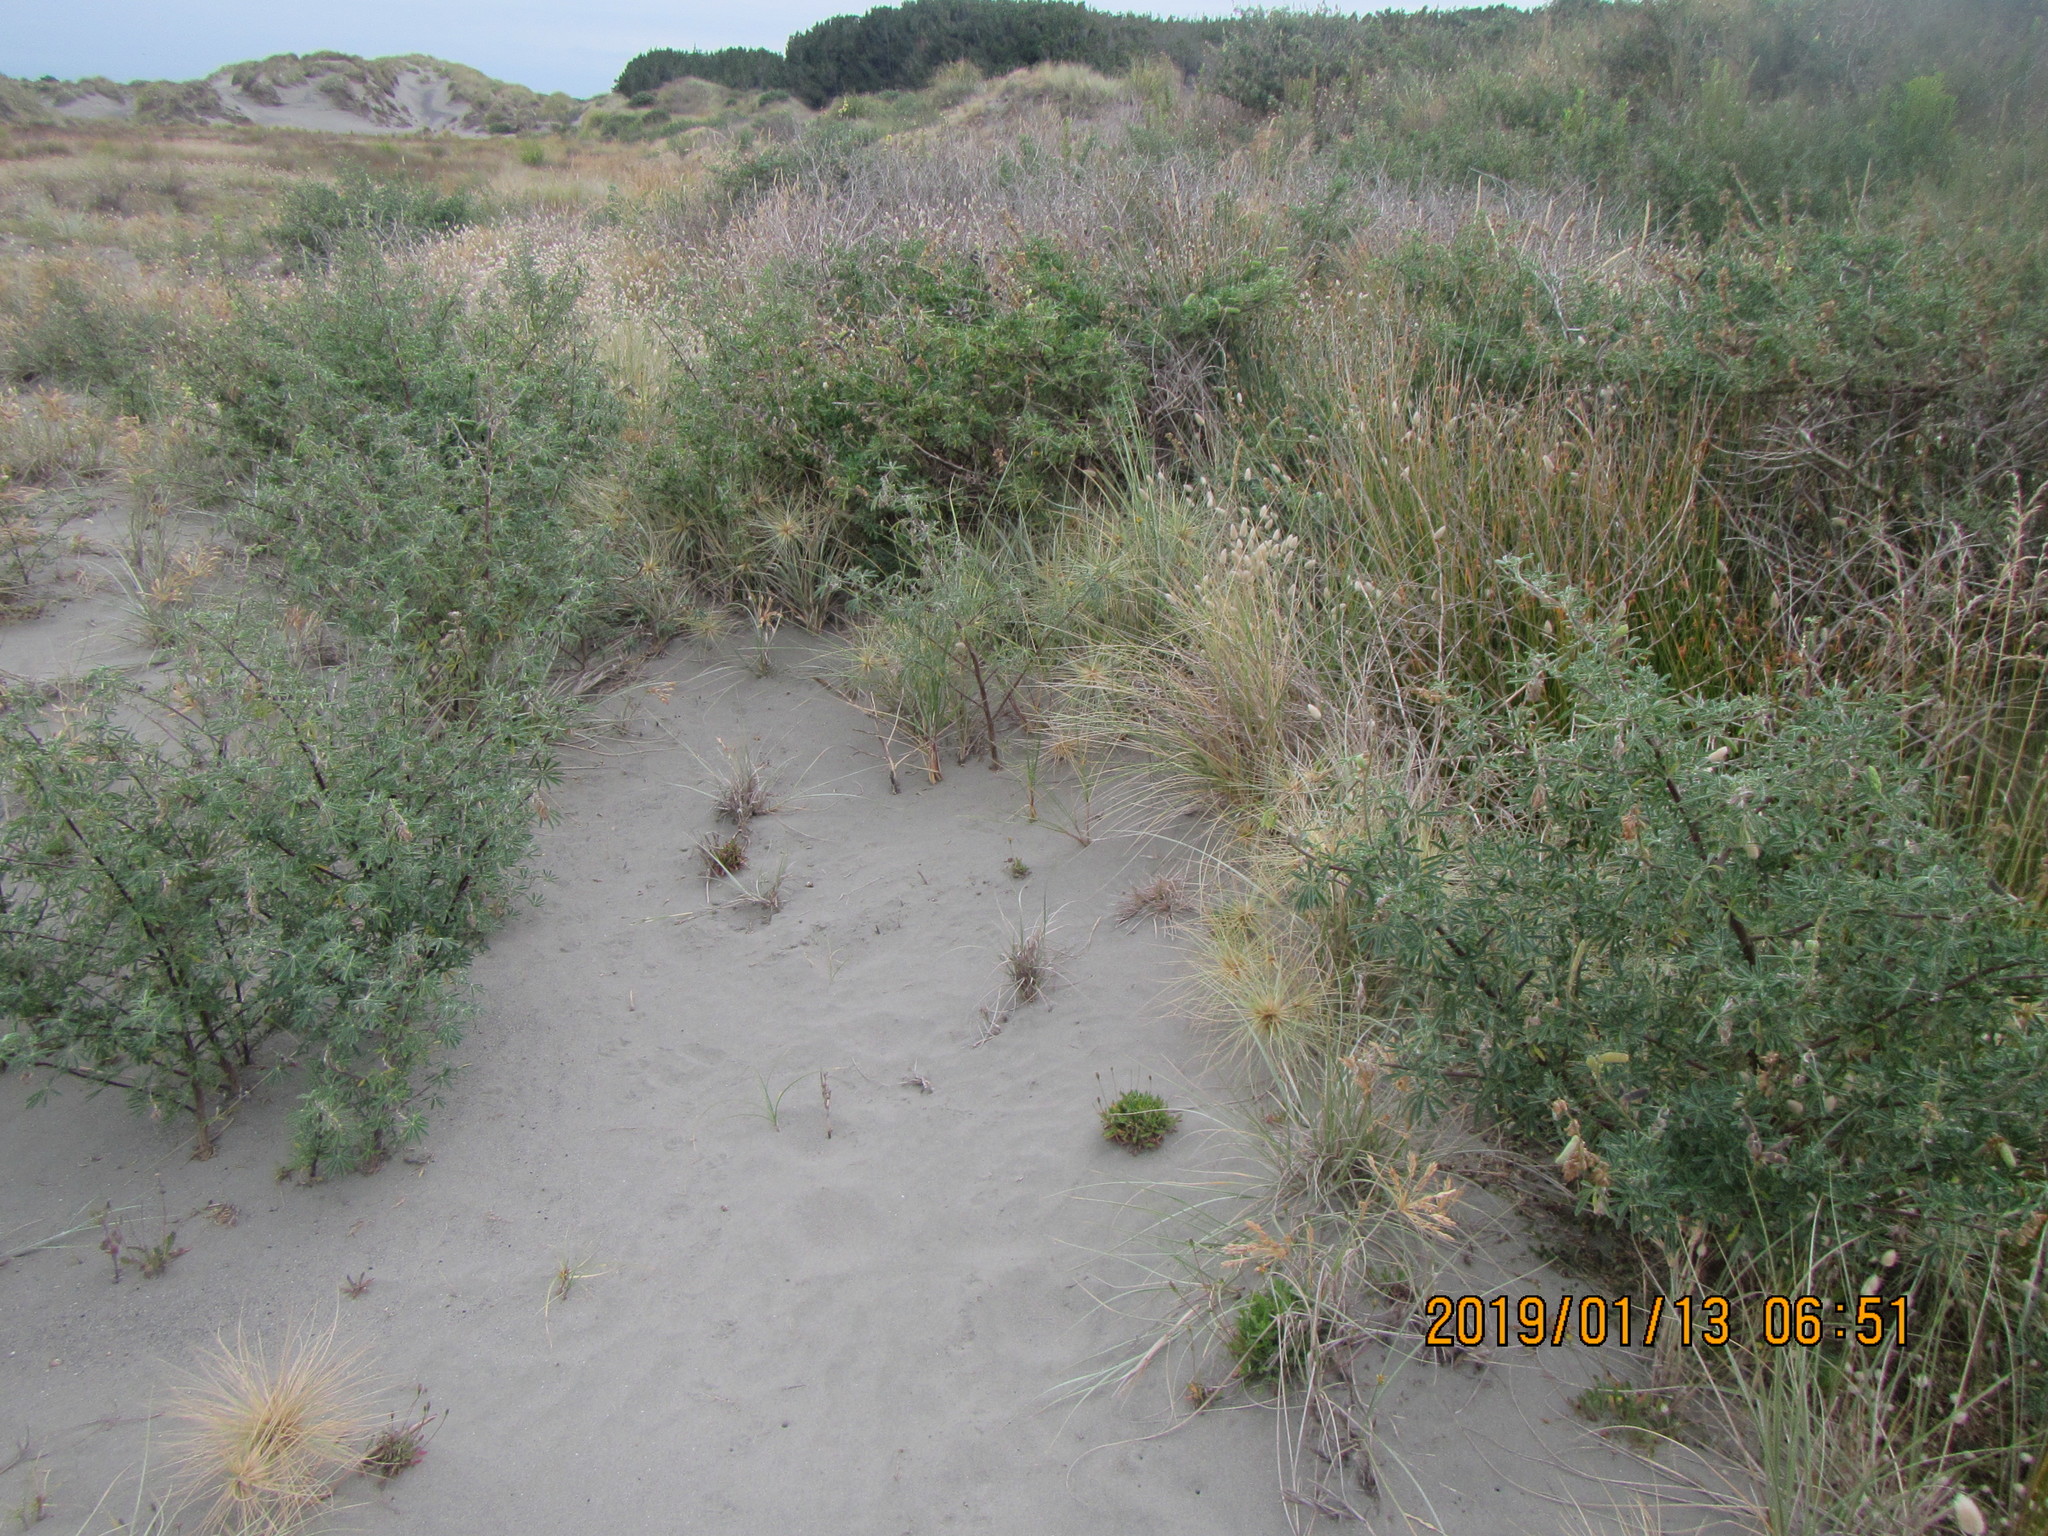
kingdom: Plantae
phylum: Tracheophyta
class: Magnoliopsida
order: Fabales
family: Fabaceae
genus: Lupinus
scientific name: Lupinus arboreus
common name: Yellow bush lupine
